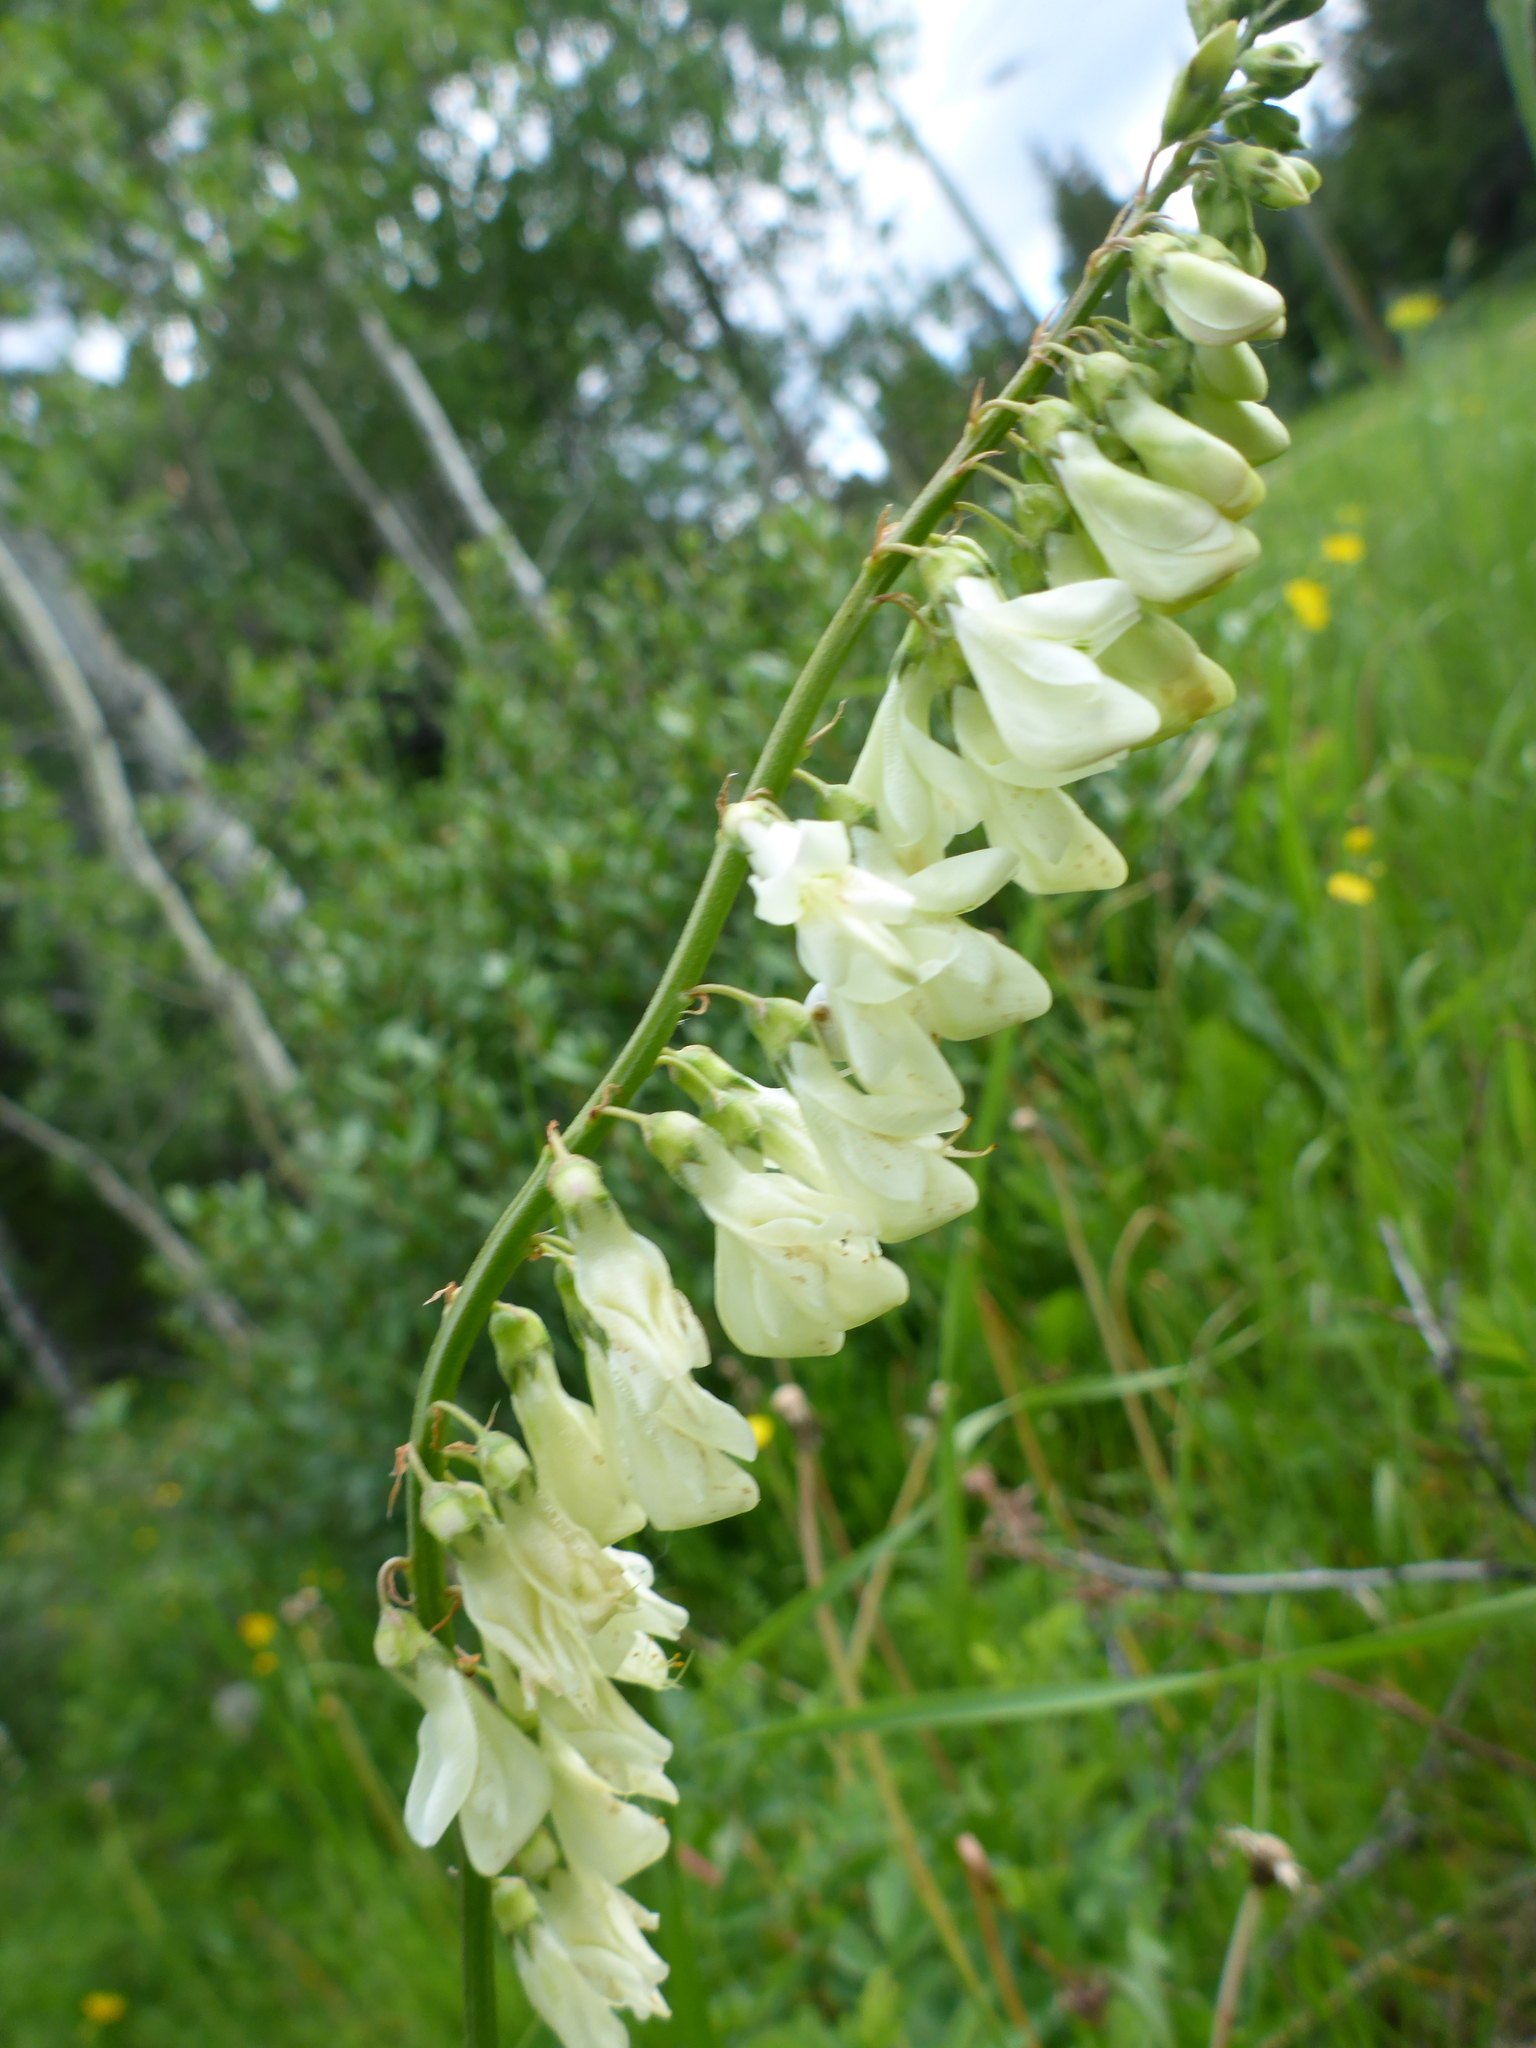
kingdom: Plantae
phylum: Tracheophyta
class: Magnoliopsida
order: Fabales
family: Fabaceae
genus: Hedysarum
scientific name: Hedysarum sulphurescens
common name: Sulphur hedysarum
